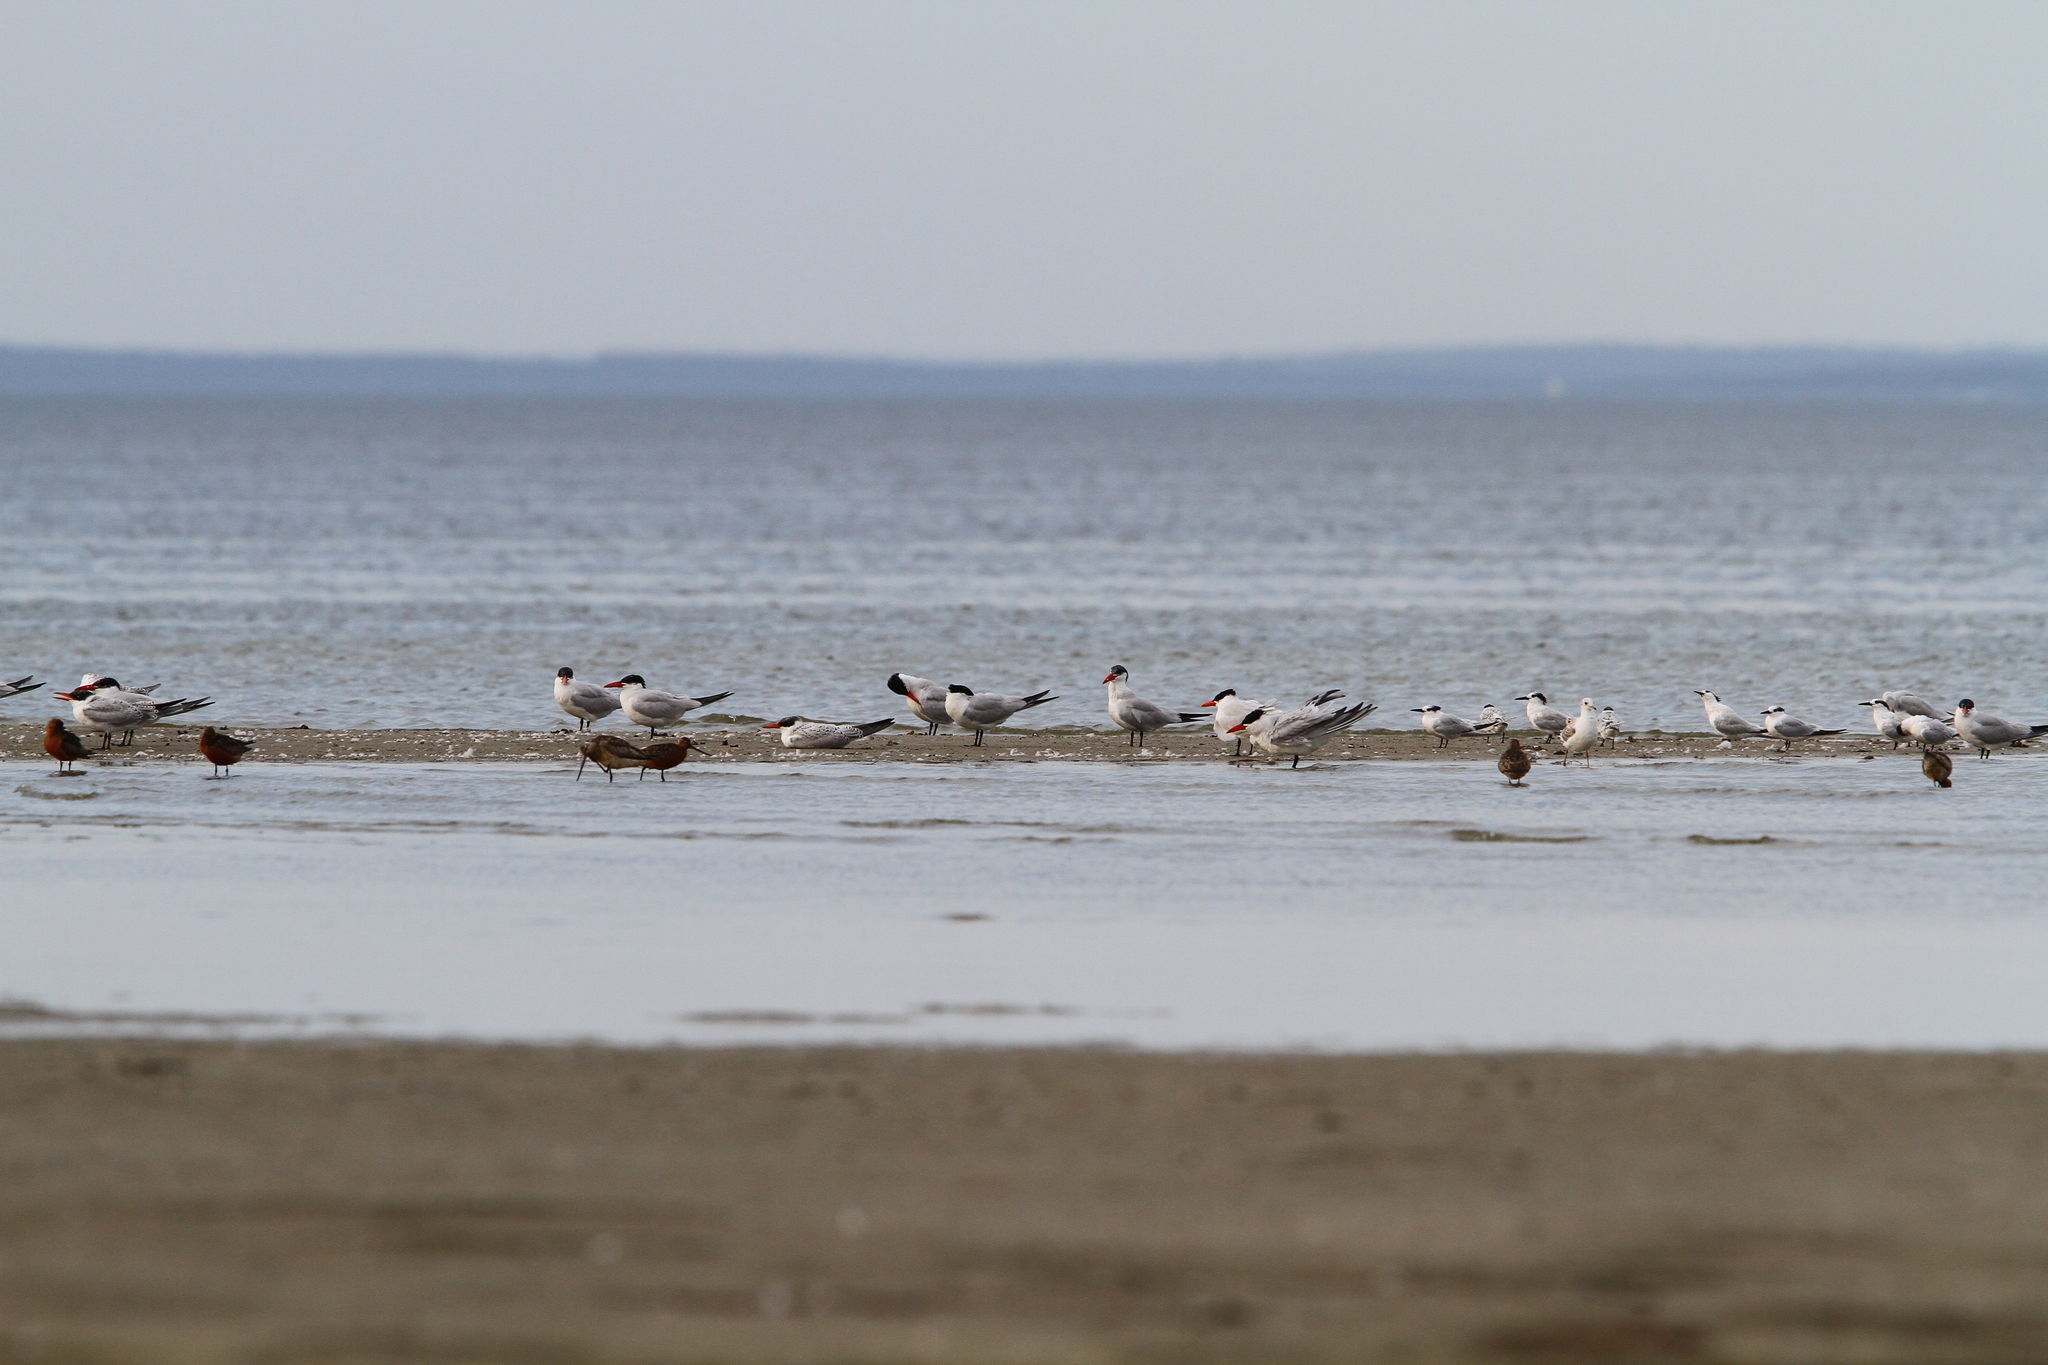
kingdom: Animalia
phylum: Chordata
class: Aves
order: Charadriiformes
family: Laridae
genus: Hydroprogne
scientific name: Hydroprogne caspia
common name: Caspian tern
